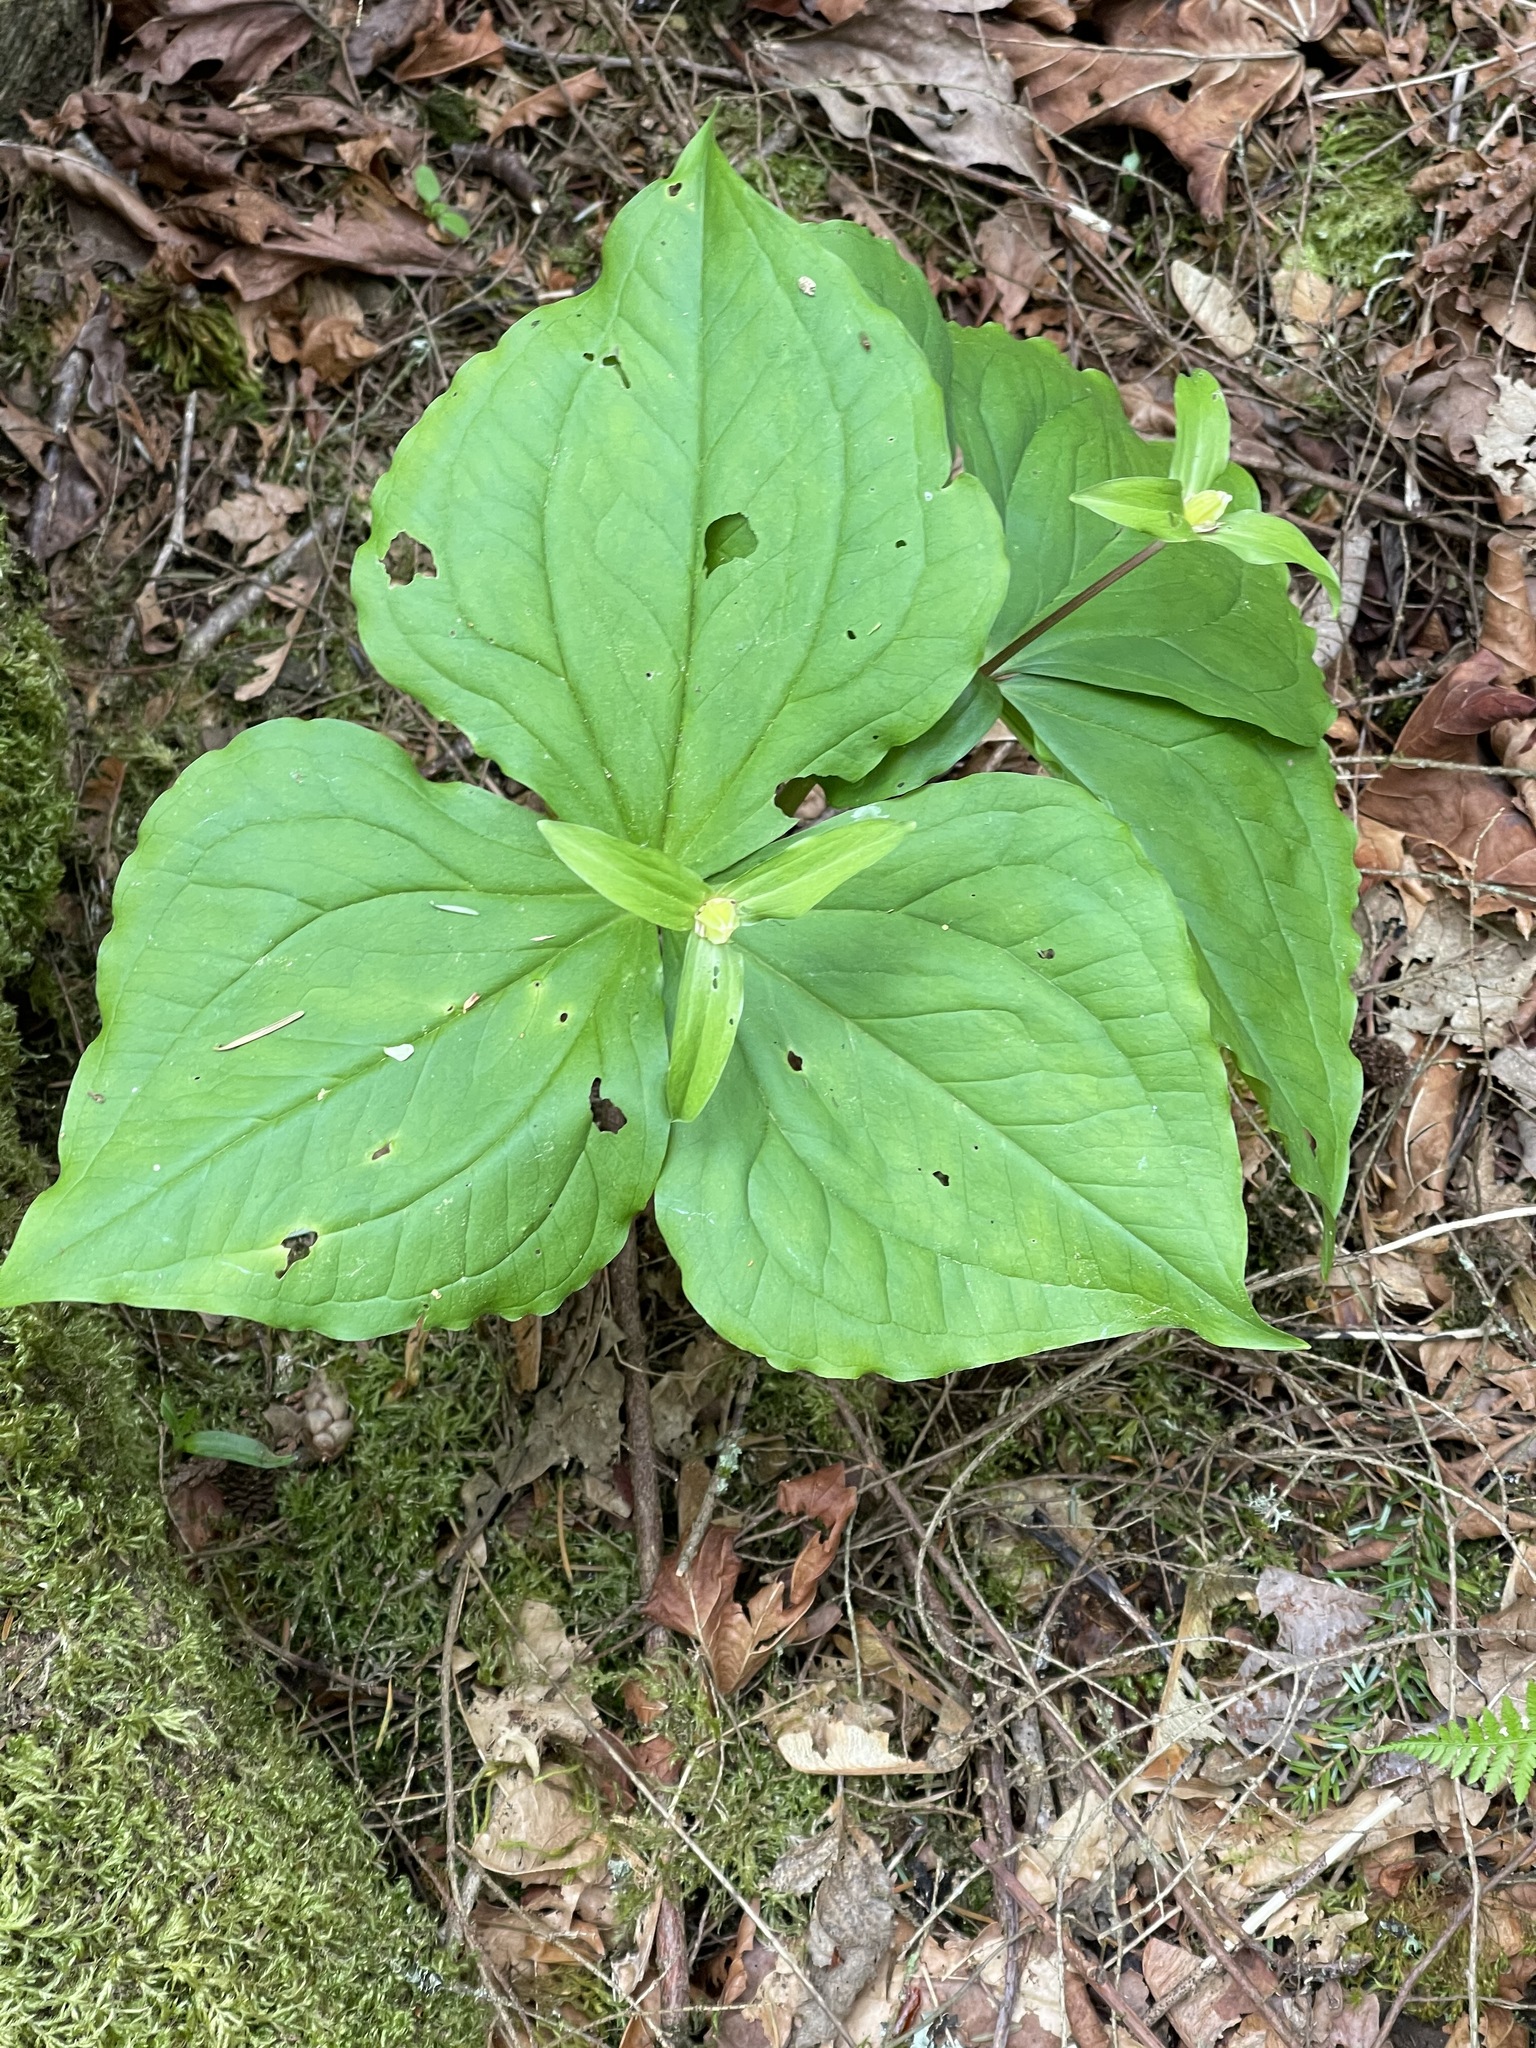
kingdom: Plantae
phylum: Tracheophyta
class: Liliopsida
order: Liliales
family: Melanthiaceae
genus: Trillium
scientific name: Trillium ovatum
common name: Pacific trillium
